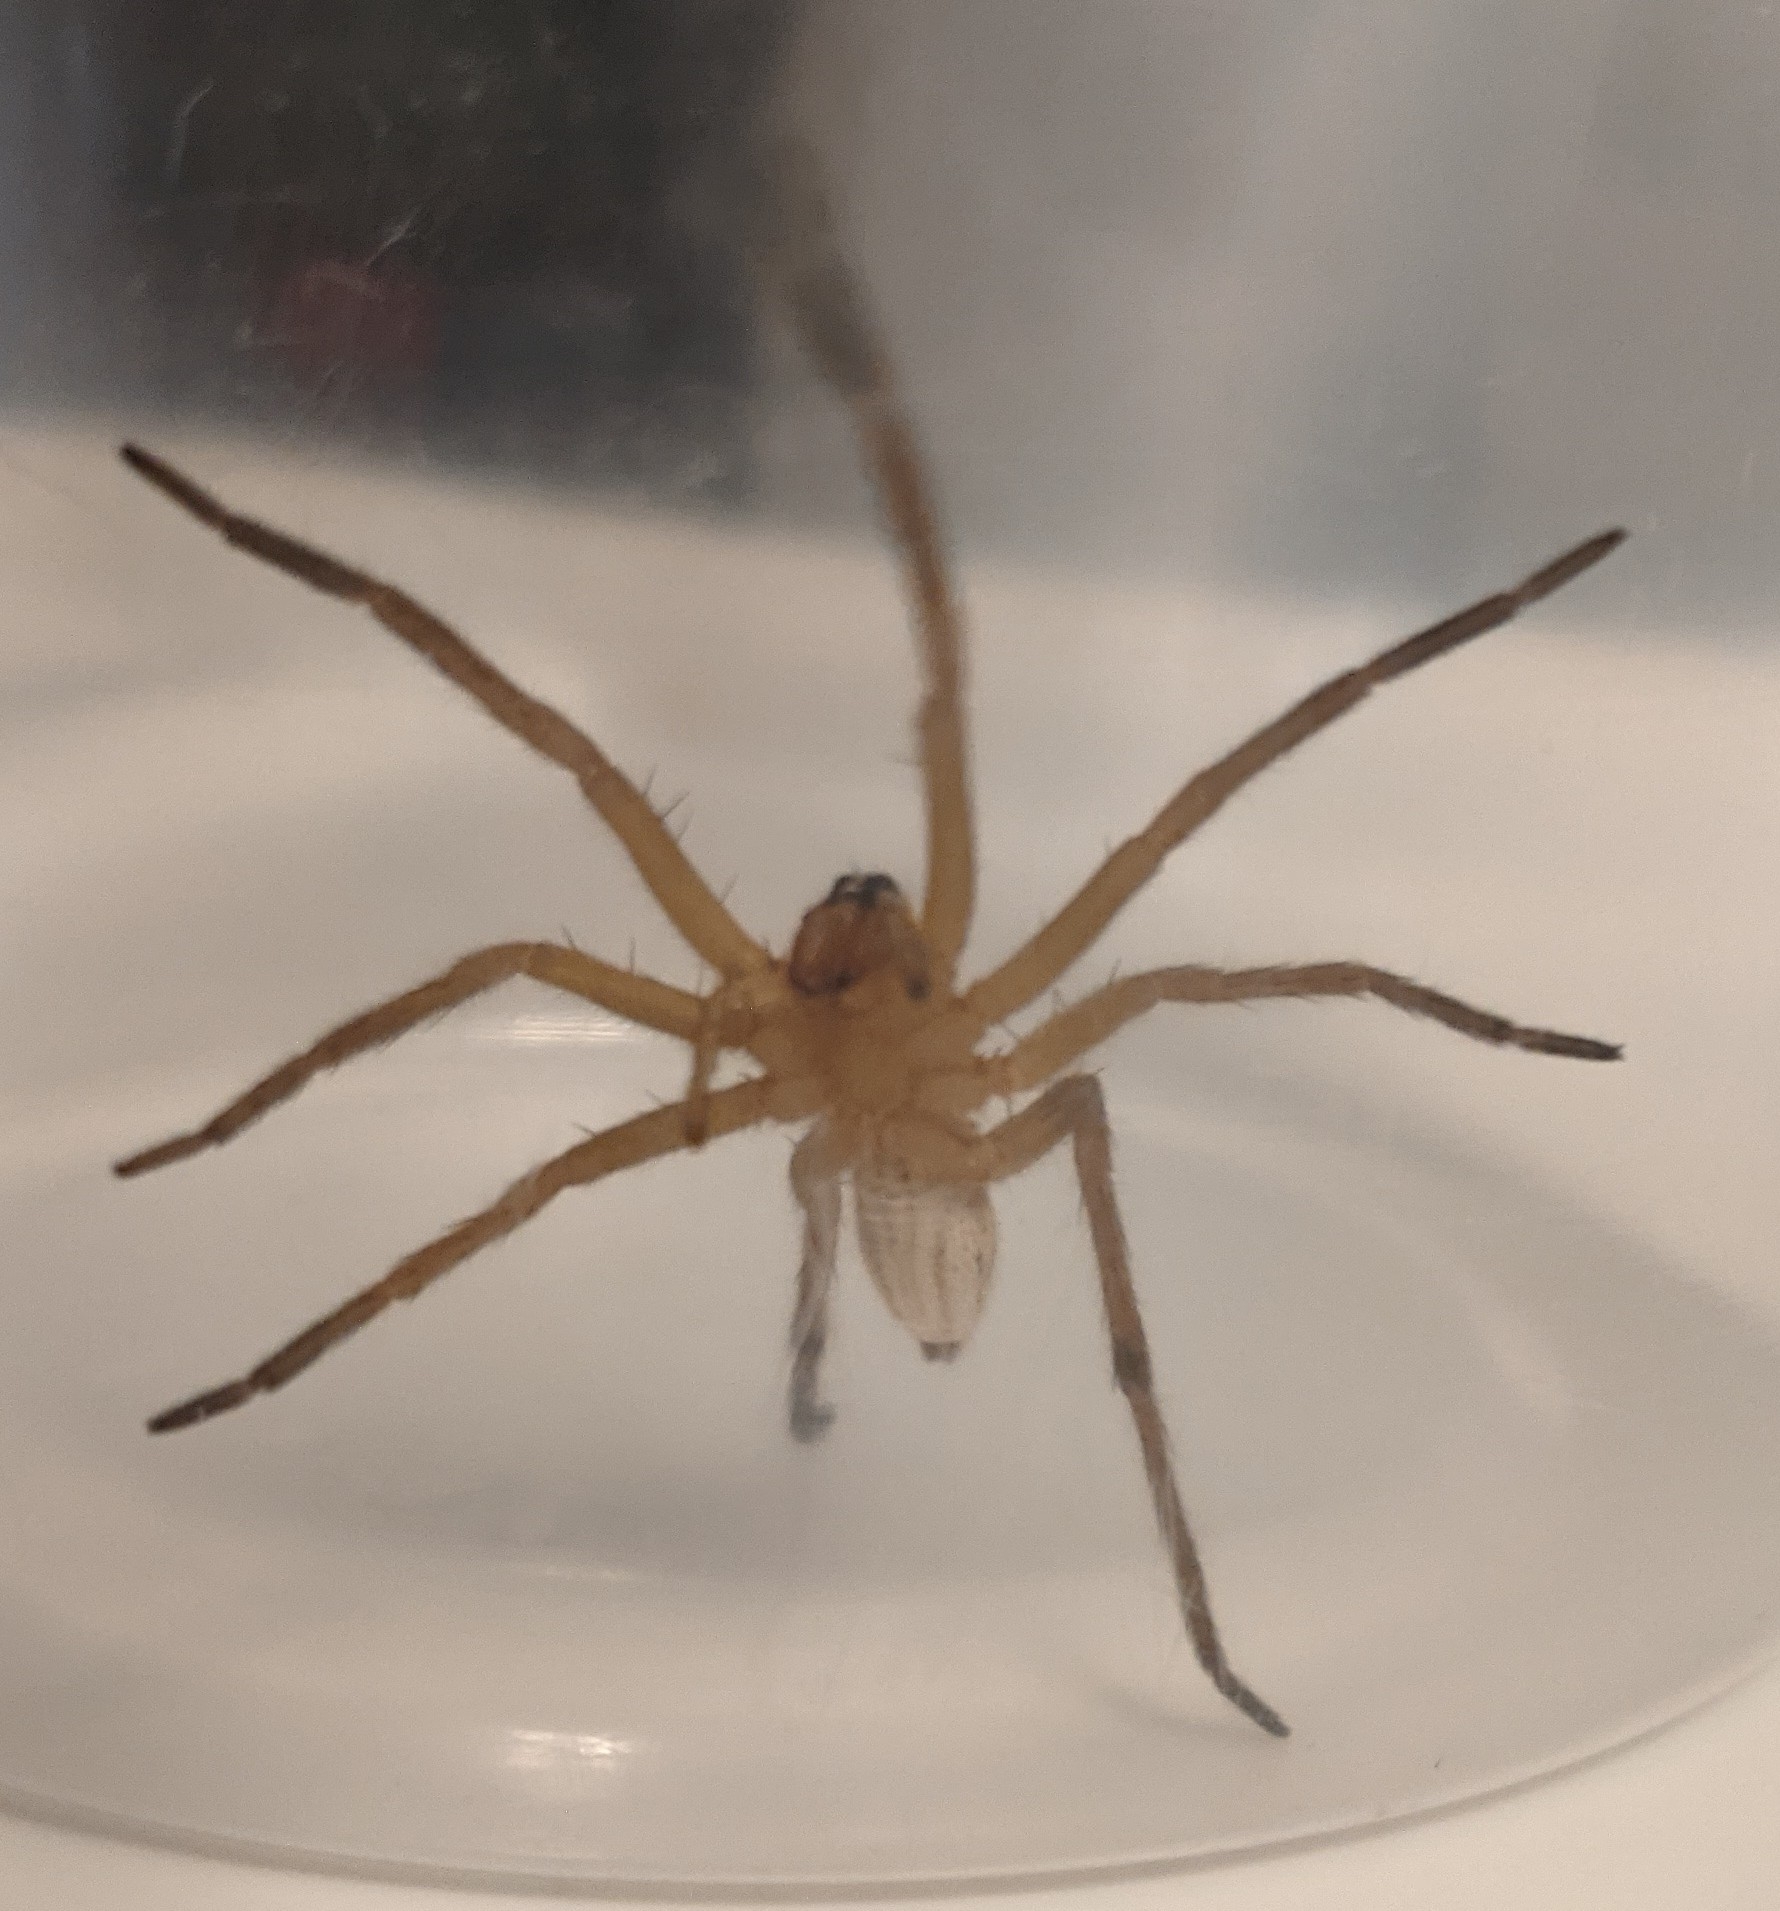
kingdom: Animalia
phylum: Arthropoda
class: Arachnida
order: Araneae
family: Lycosidae
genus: Rabidosa
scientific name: Rabidosa rabida
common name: Rabid wolf spider
